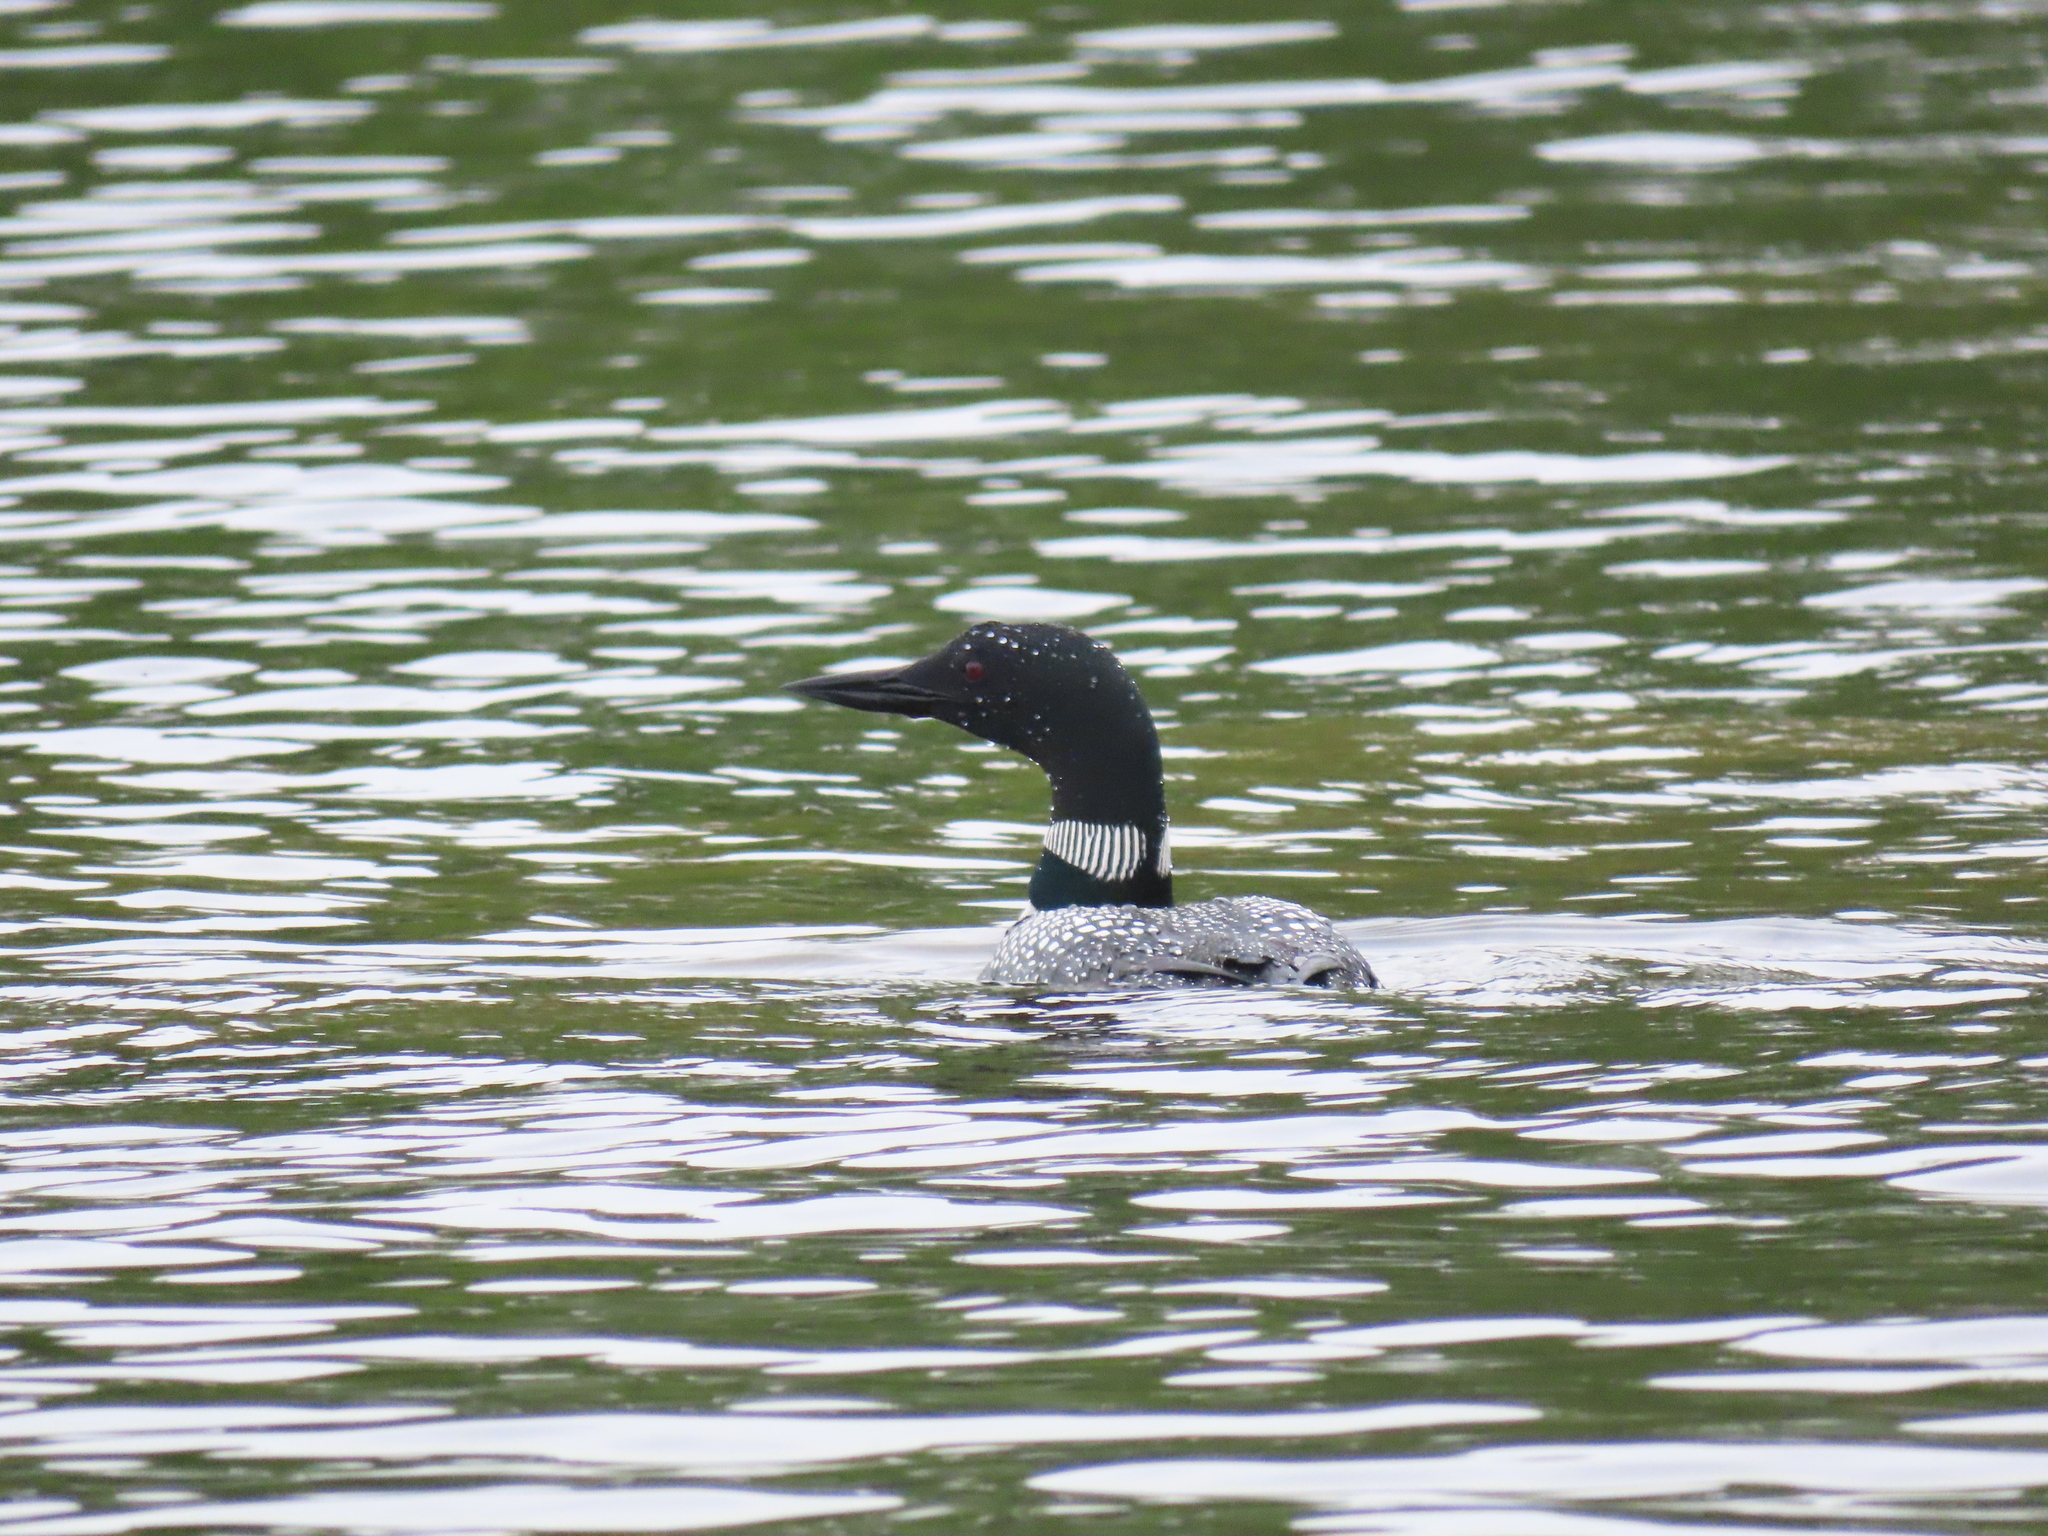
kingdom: Animalia
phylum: Chordata
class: Aves
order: Gaviiformes
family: Gaviidae
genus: Gavia
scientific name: Gavia immer
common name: Common loon
